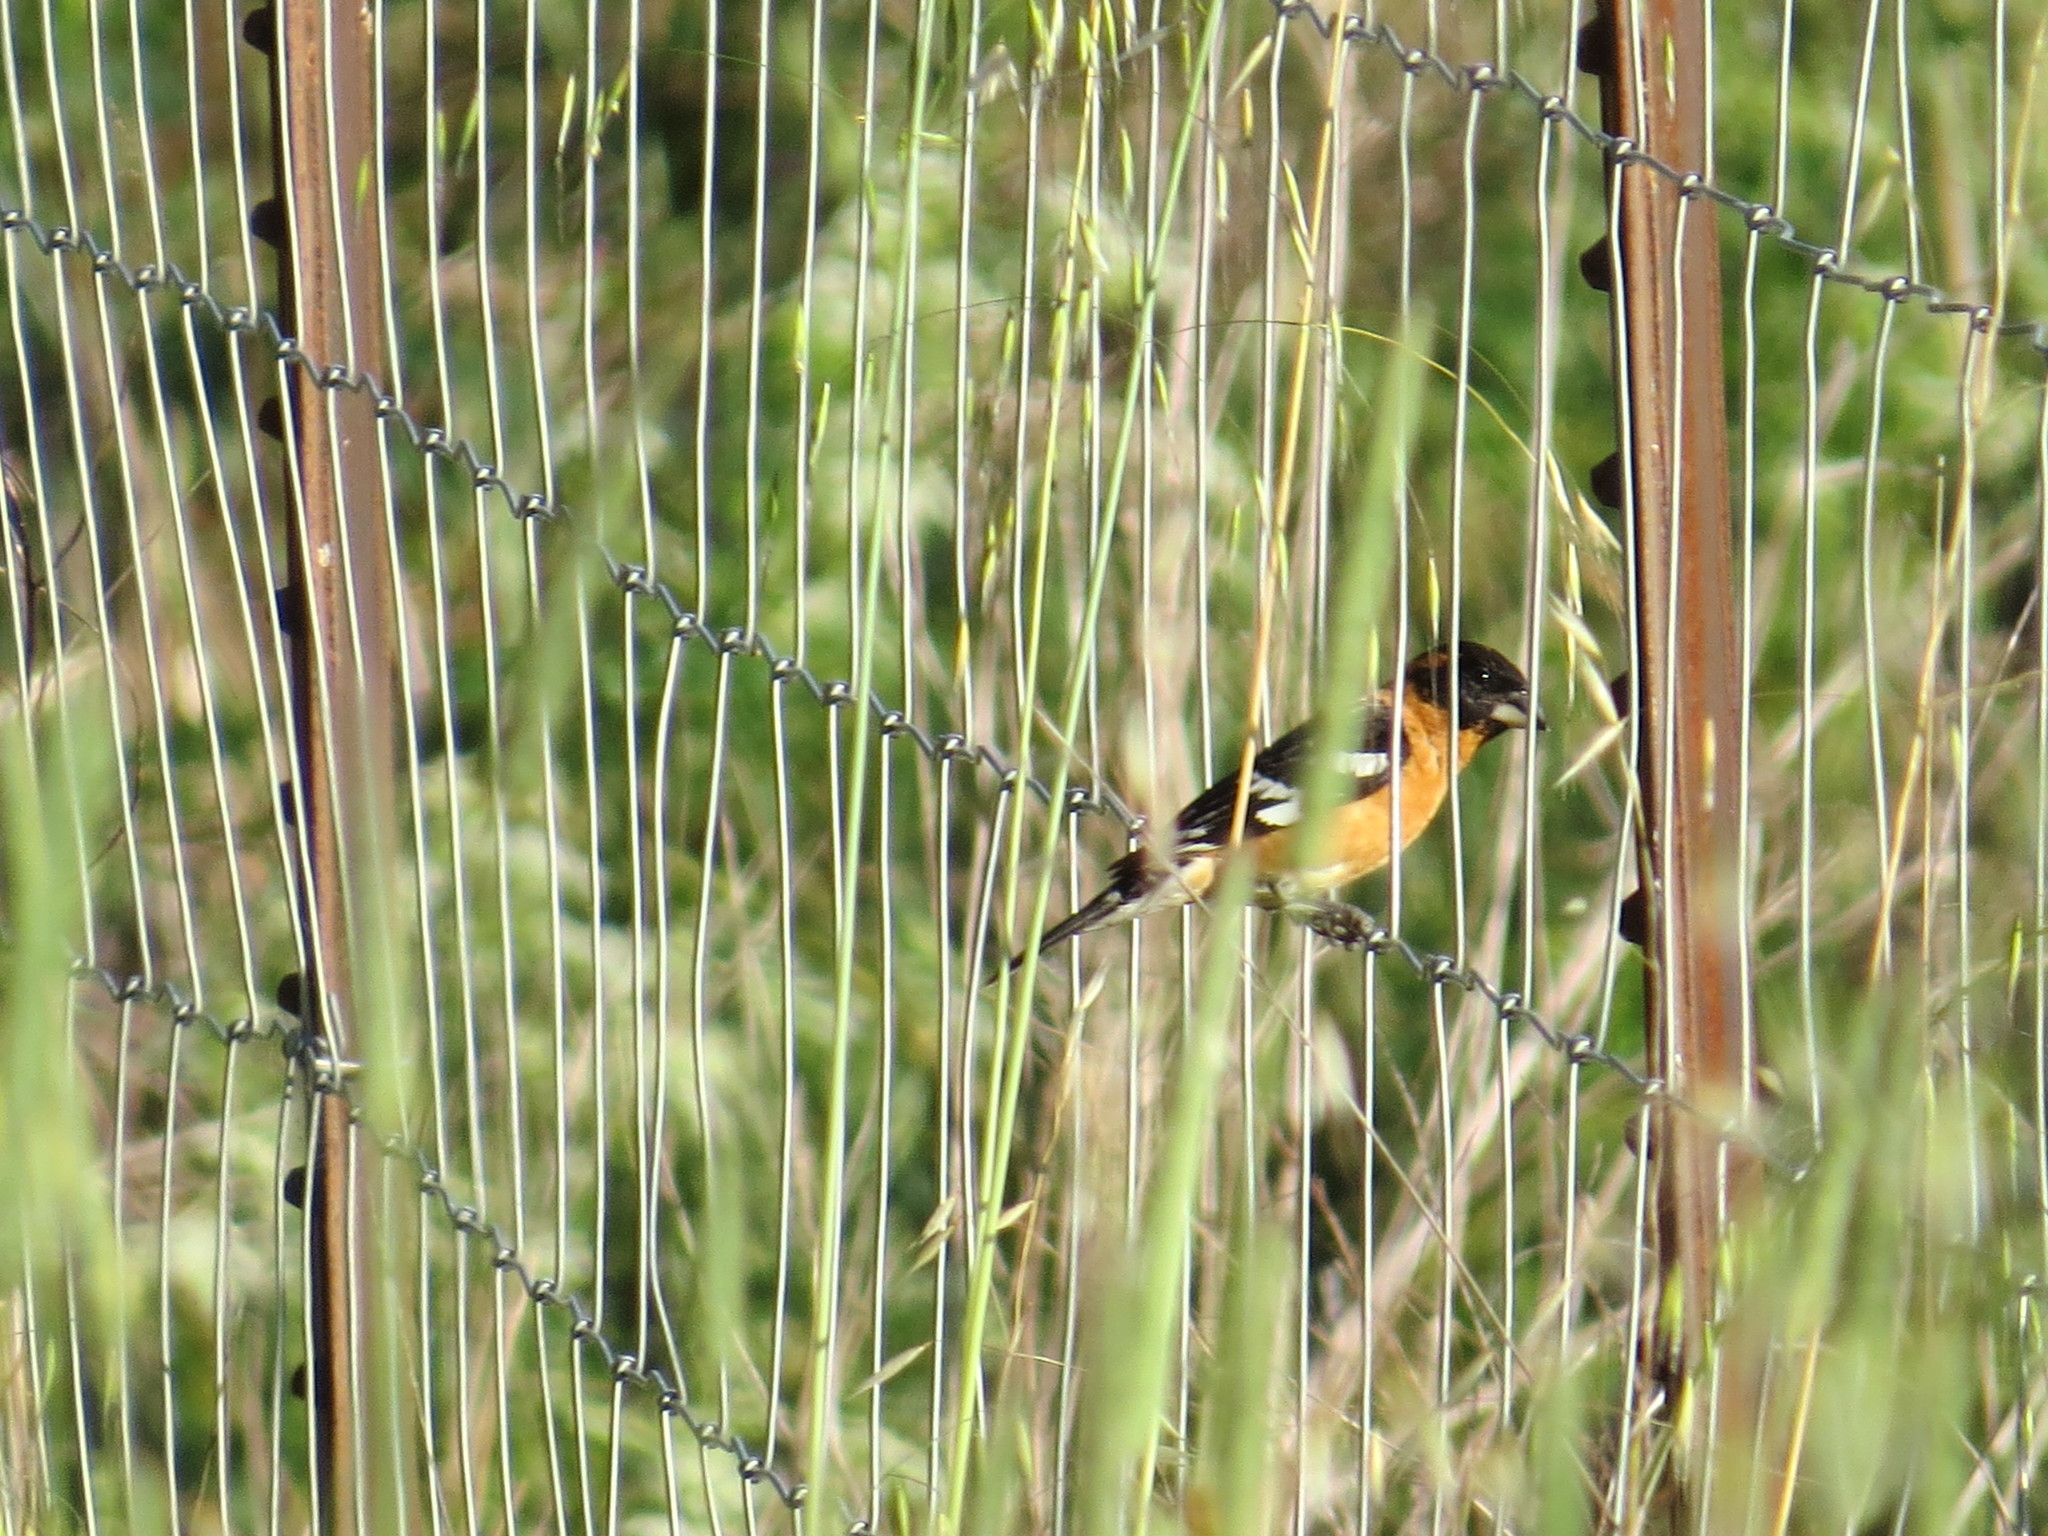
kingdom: Animalia
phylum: Chordata
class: Aves
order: Passeriformes
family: Cardinalidae
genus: Pheucticus
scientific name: Pheucticus melanocephalus
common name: Black-headed grosbeak
